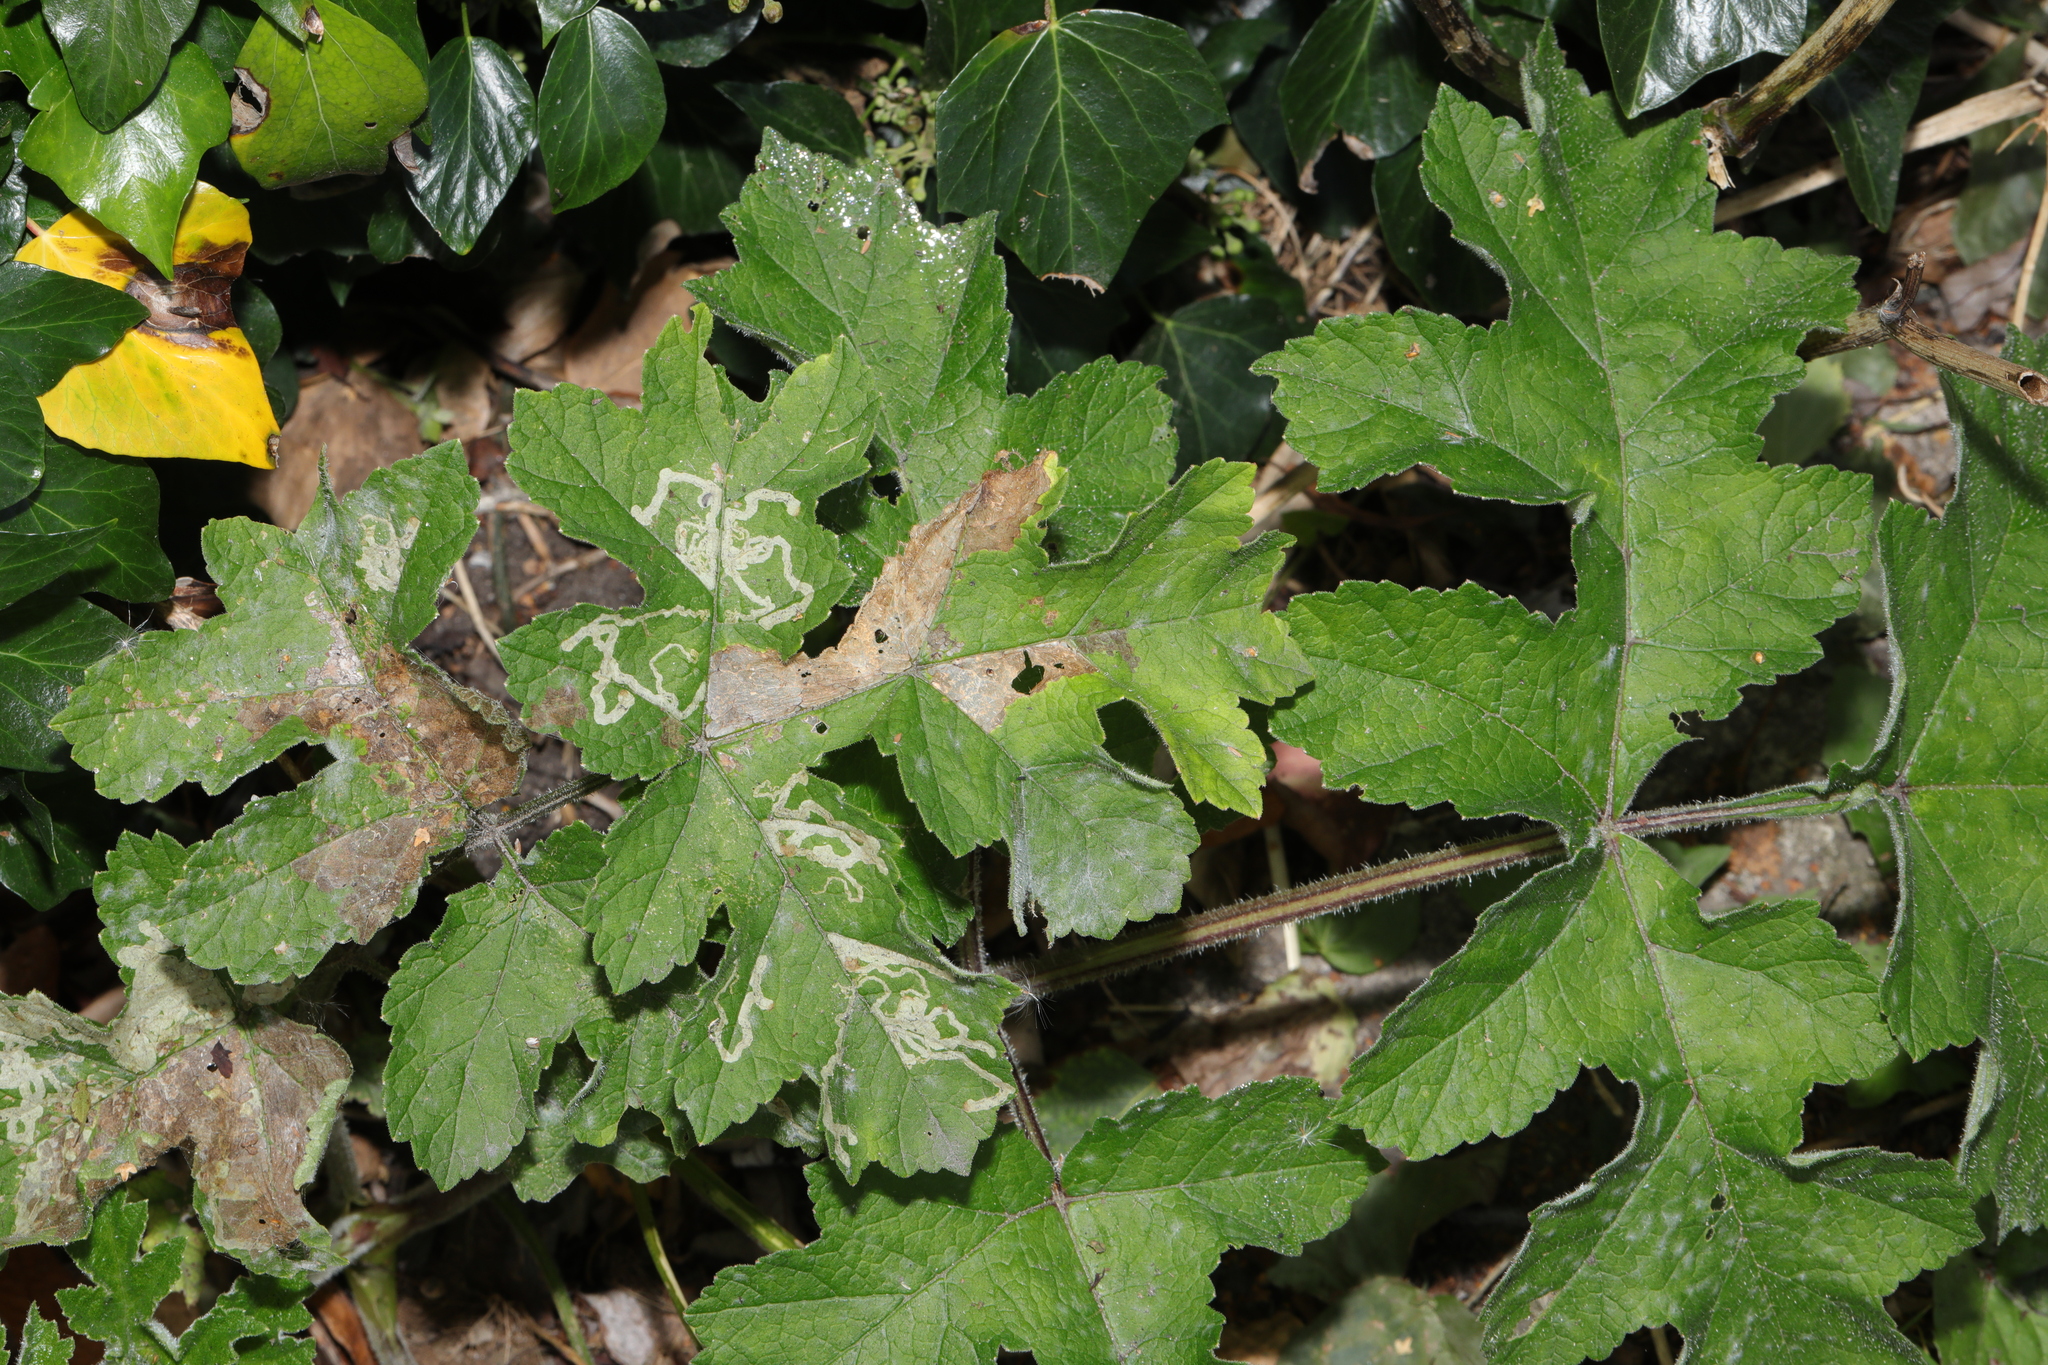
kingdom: Plantae
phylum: Tracheophyta
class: Magnoliopsida
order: Apiales
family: Apiaceae
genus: Heracleum
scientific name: Heracleum sphondylium
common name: Hogweed
